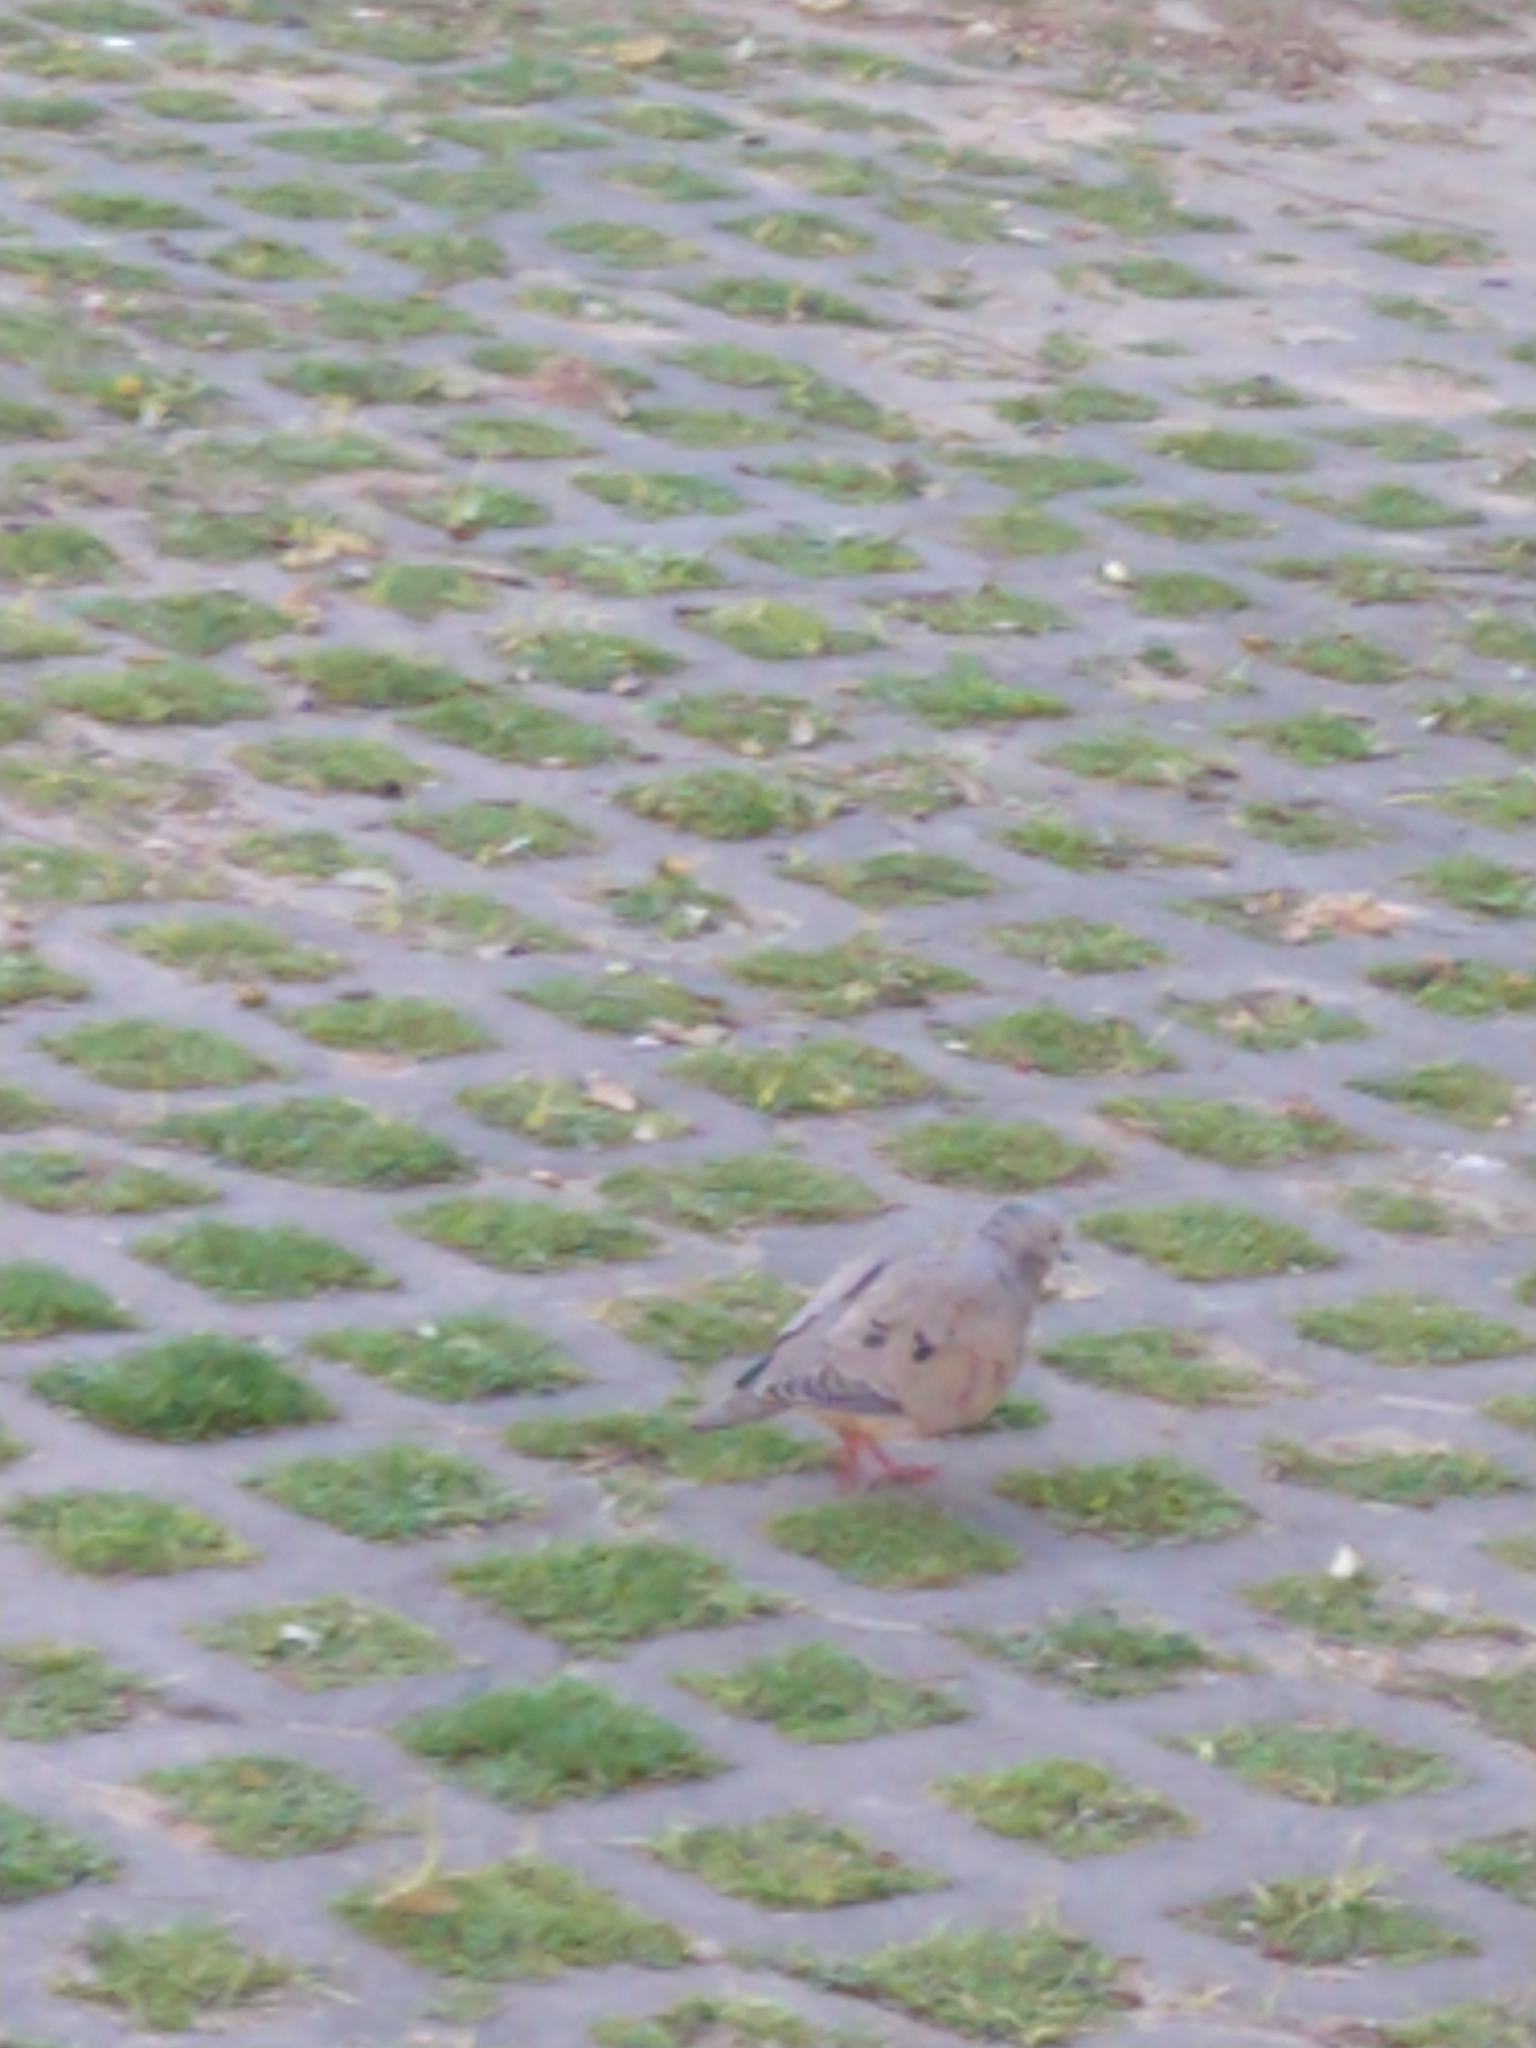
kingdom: Animalia
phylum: Chordata
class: Aves
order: Columbiformes
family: Columbidae
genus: Zenaida
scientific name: Zenaida auriculata
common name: Eared dove
